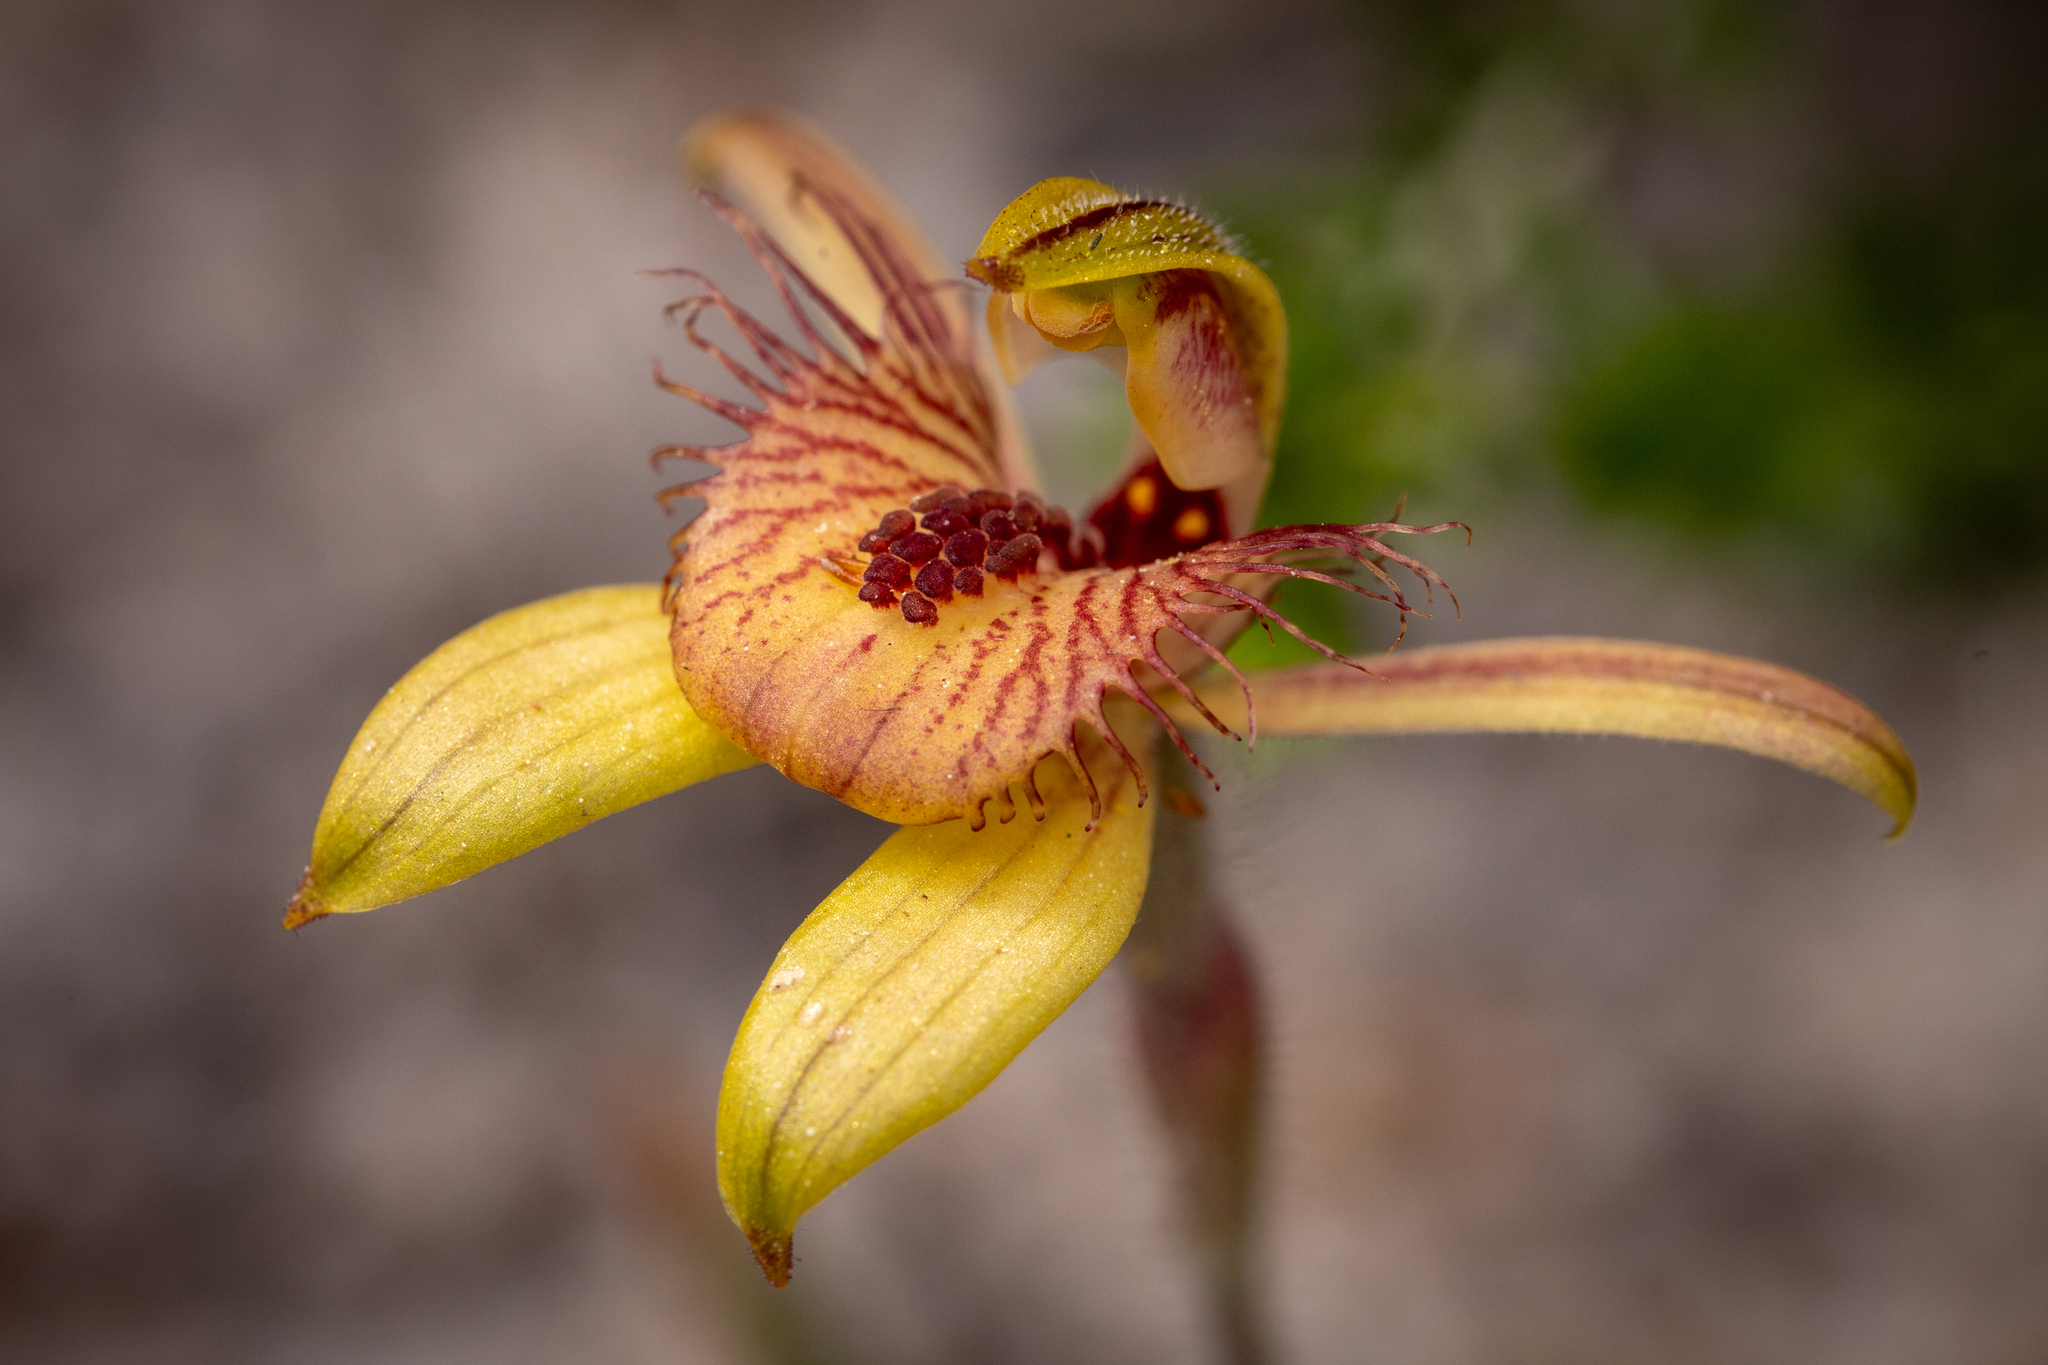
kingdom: Plantae
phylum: Tracheophyta
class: Liliopsida
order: Asparagales
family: Orchidaceae
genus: Caladenia
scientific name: Caladenia discoidea
